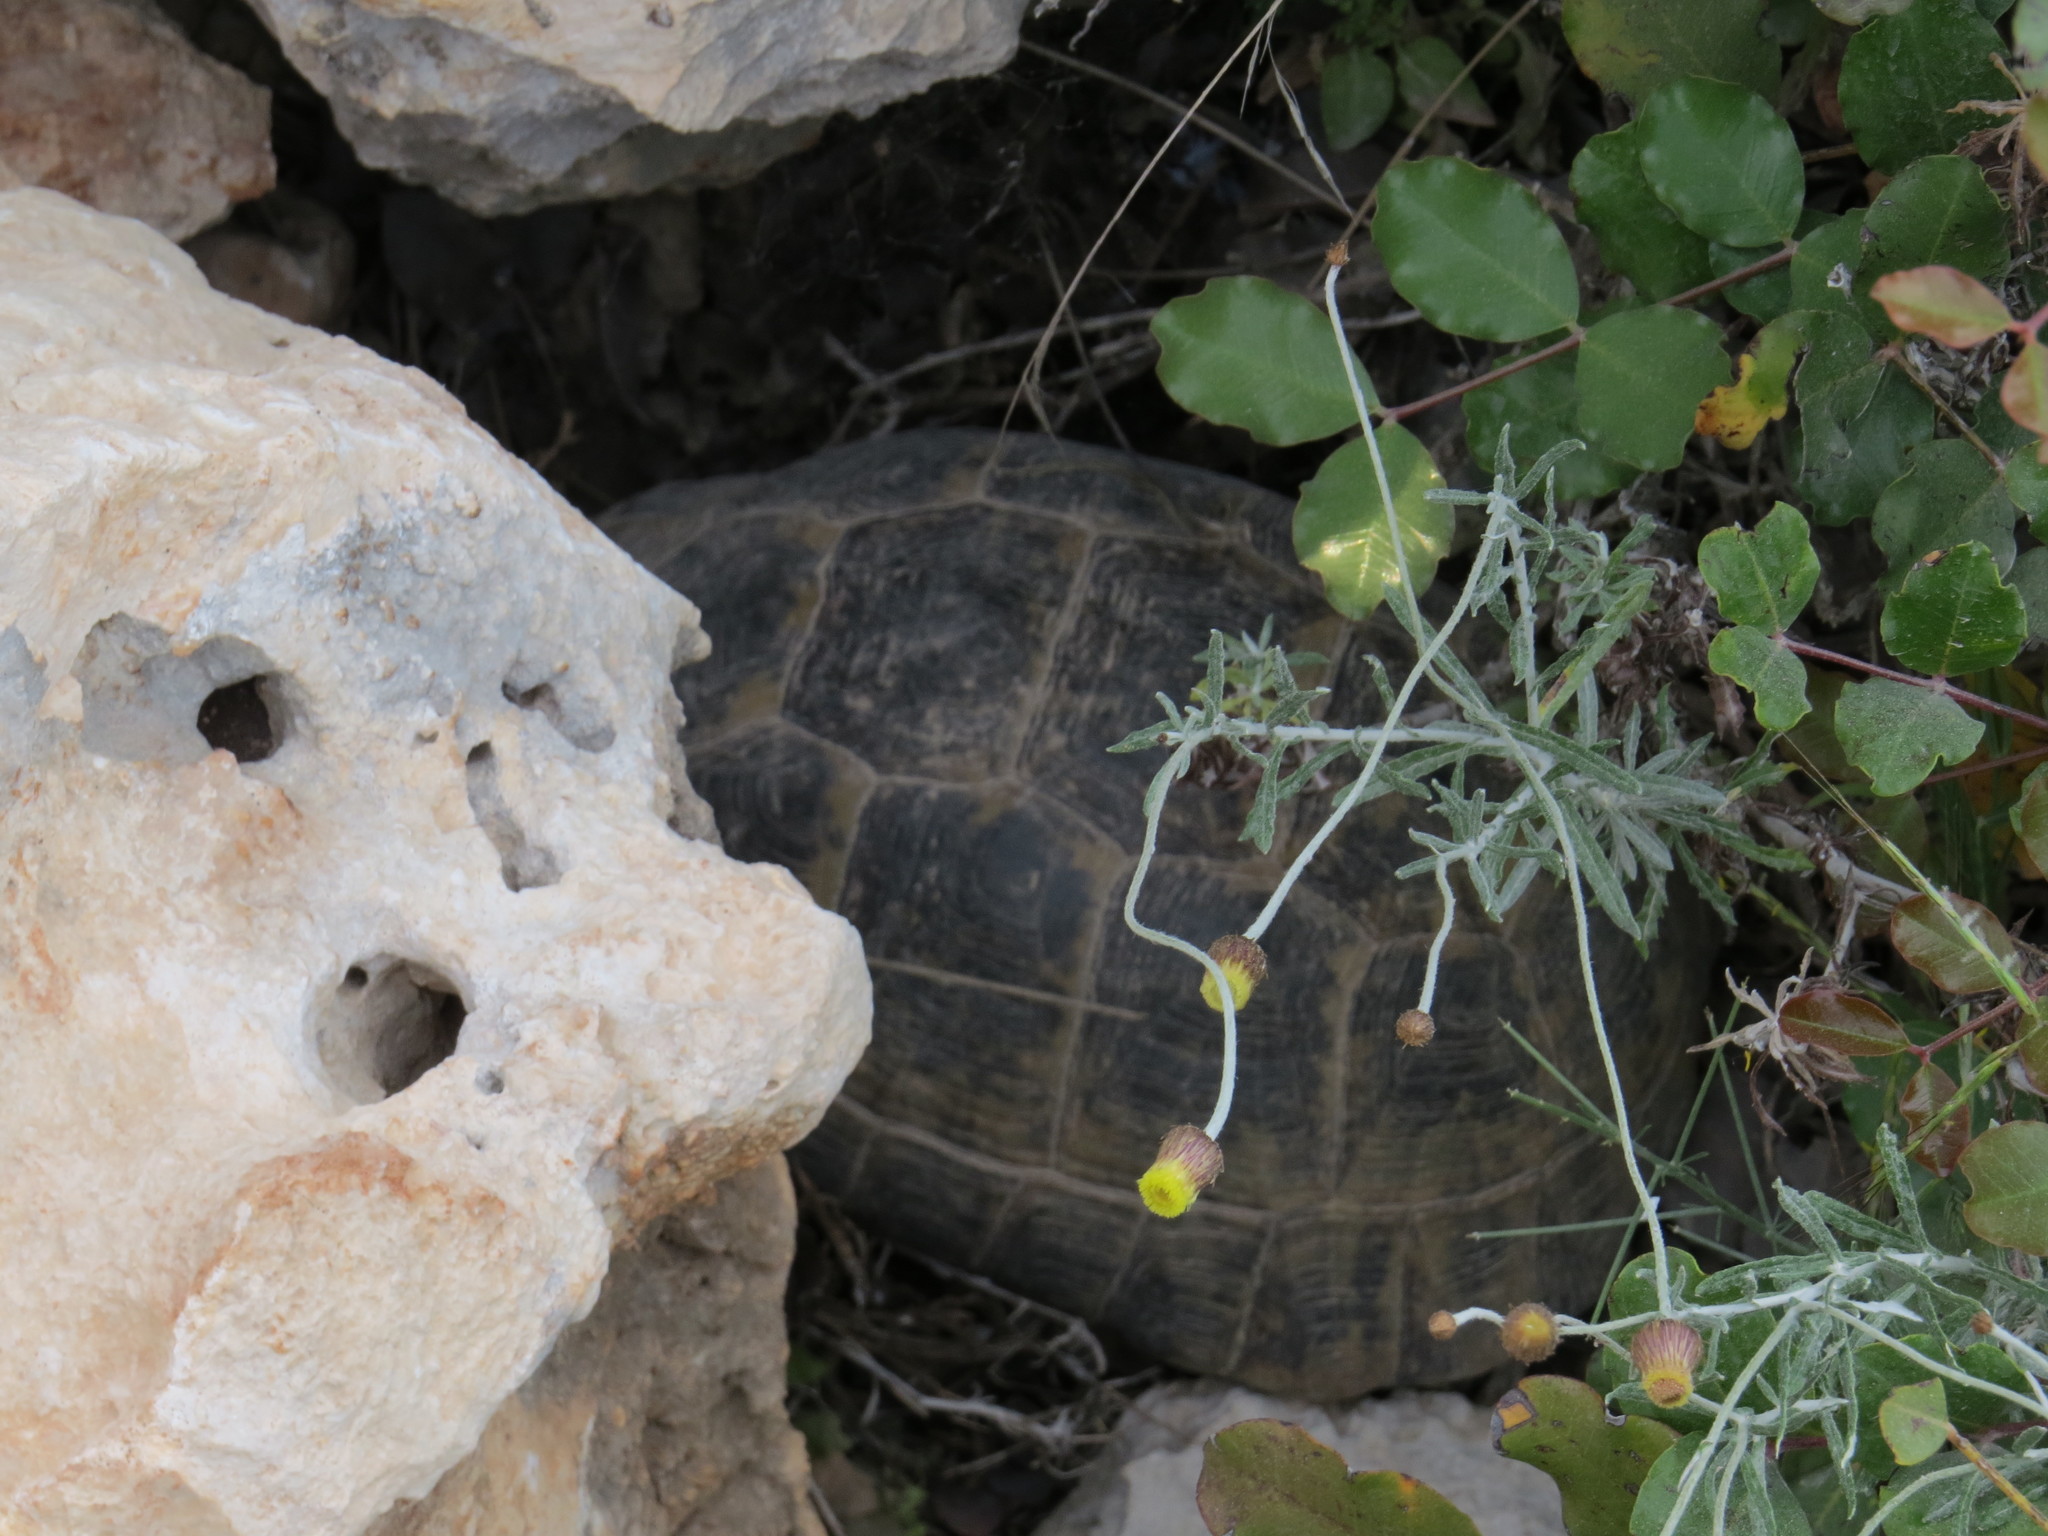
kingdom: Animalia
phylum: Chordata
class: Testudines
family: Testudinidae
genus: Testudo
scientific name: Testudo graeca
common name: Common tortoise
